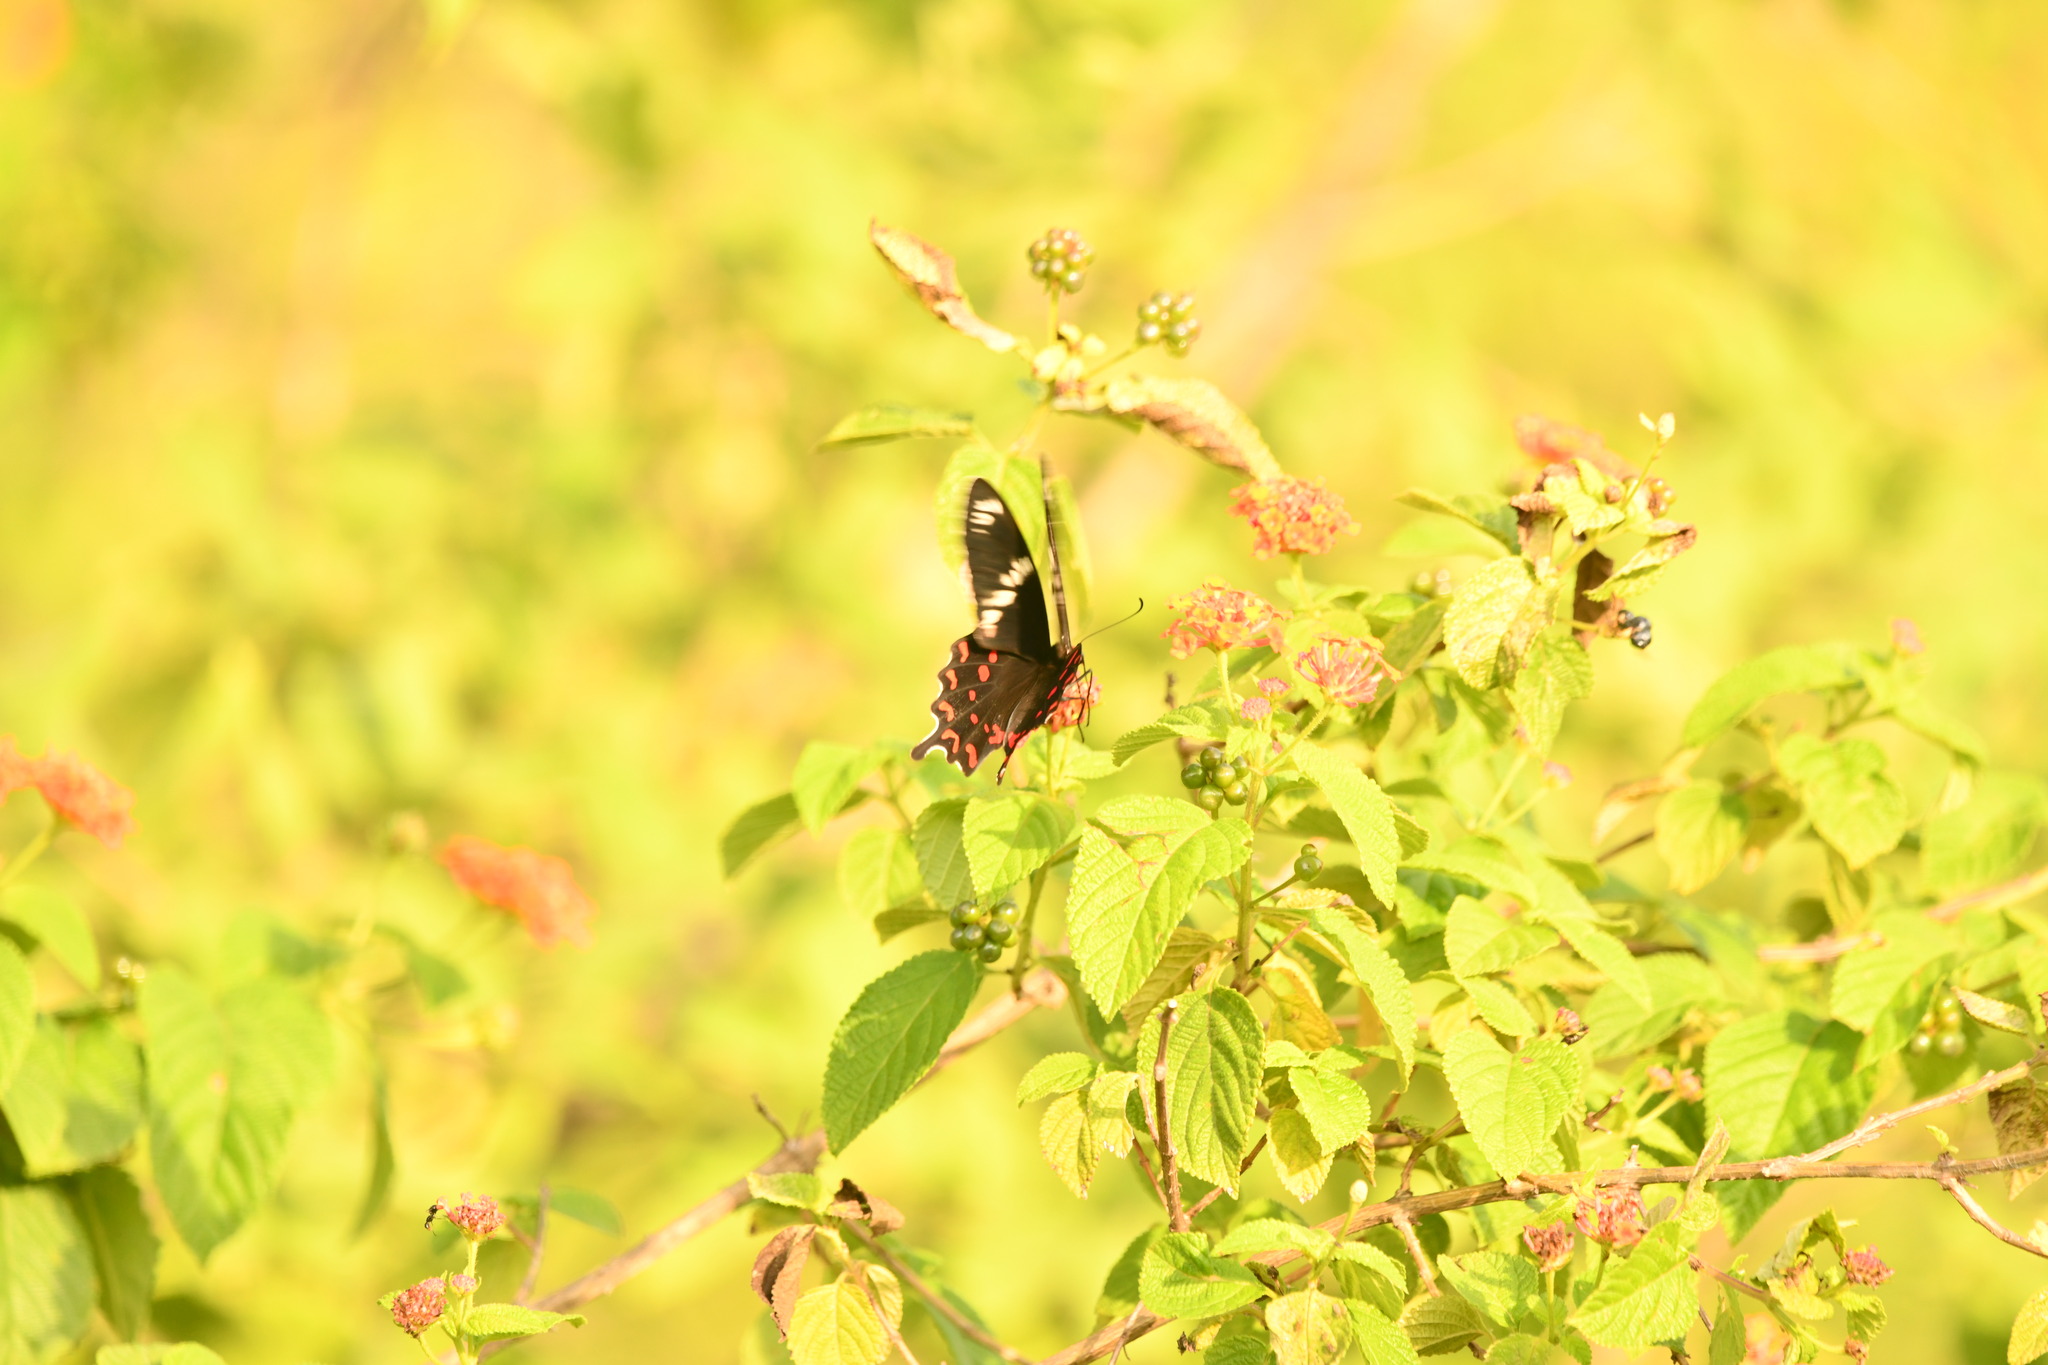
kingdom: Animalia
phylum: Arthropoda
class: Insecta
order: Lepidoptera
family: Papilionidae
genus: Pachliopta
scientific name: Pachliopta hector
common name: Crimson rose
